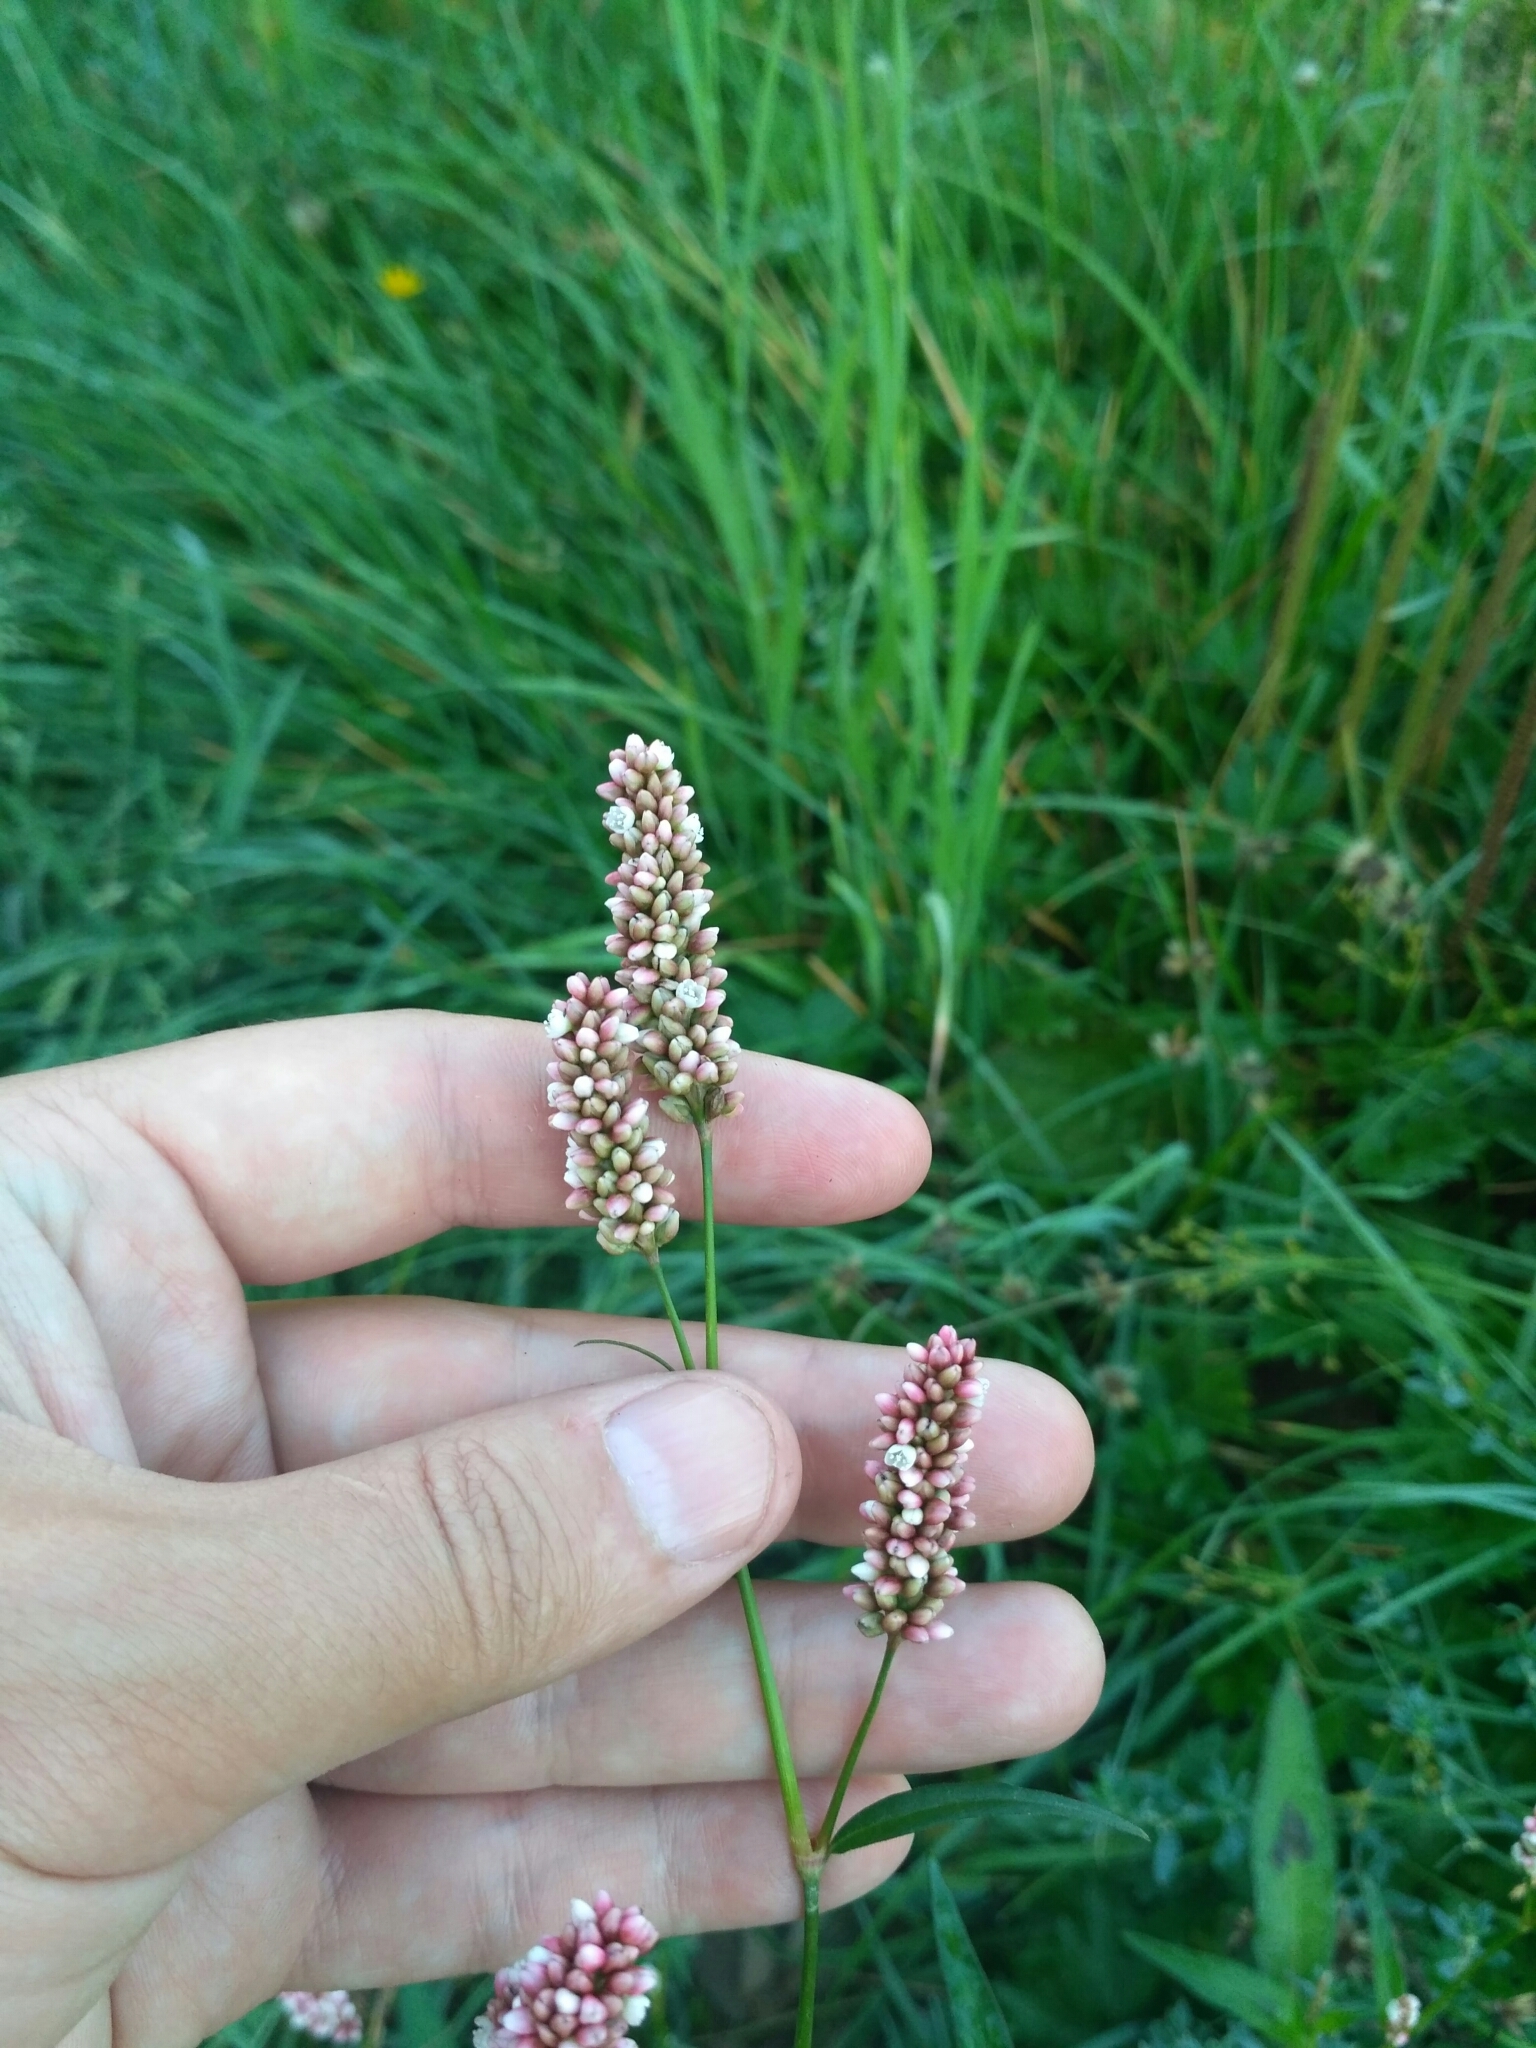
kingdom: Plantae
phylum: Tracheophyta
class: Magnoliopsida
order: Caryophyllales
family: Polygonaceae
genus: Persicaria
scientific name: Persicaria maculosa
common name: Redshank
